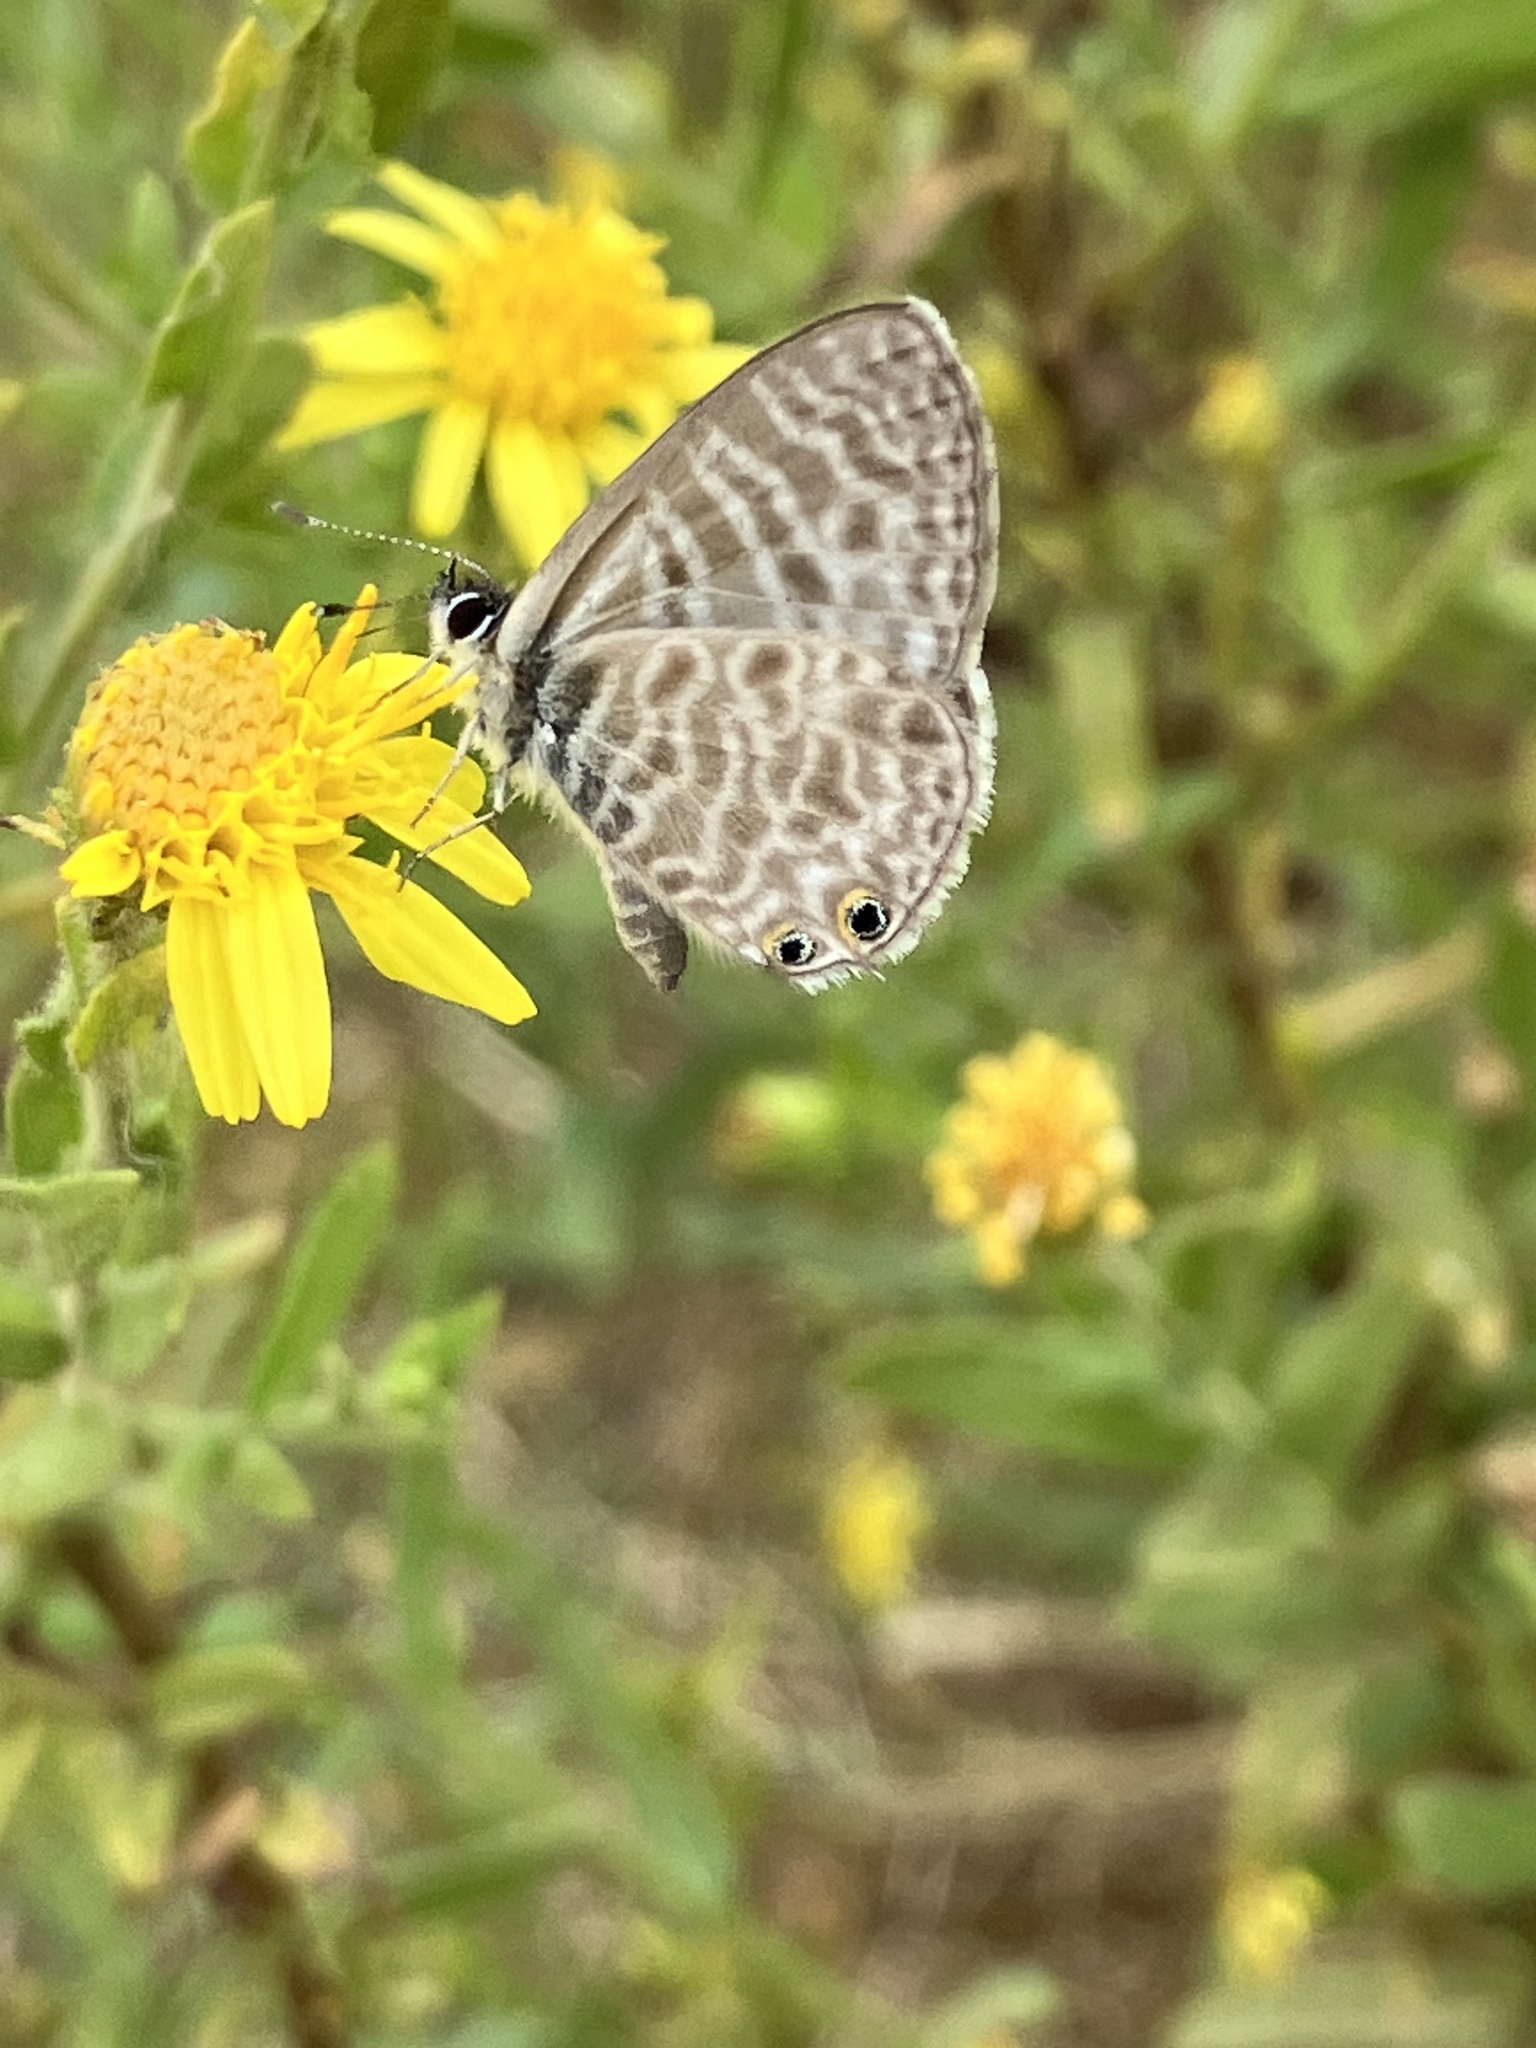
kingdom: Animalia
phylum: Arthropoda
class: Insecta
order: Lepidoptera
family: Lycaenidae
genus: Leptotes
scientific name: Leptotes pirithous
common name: Lang's short-tailed blue
